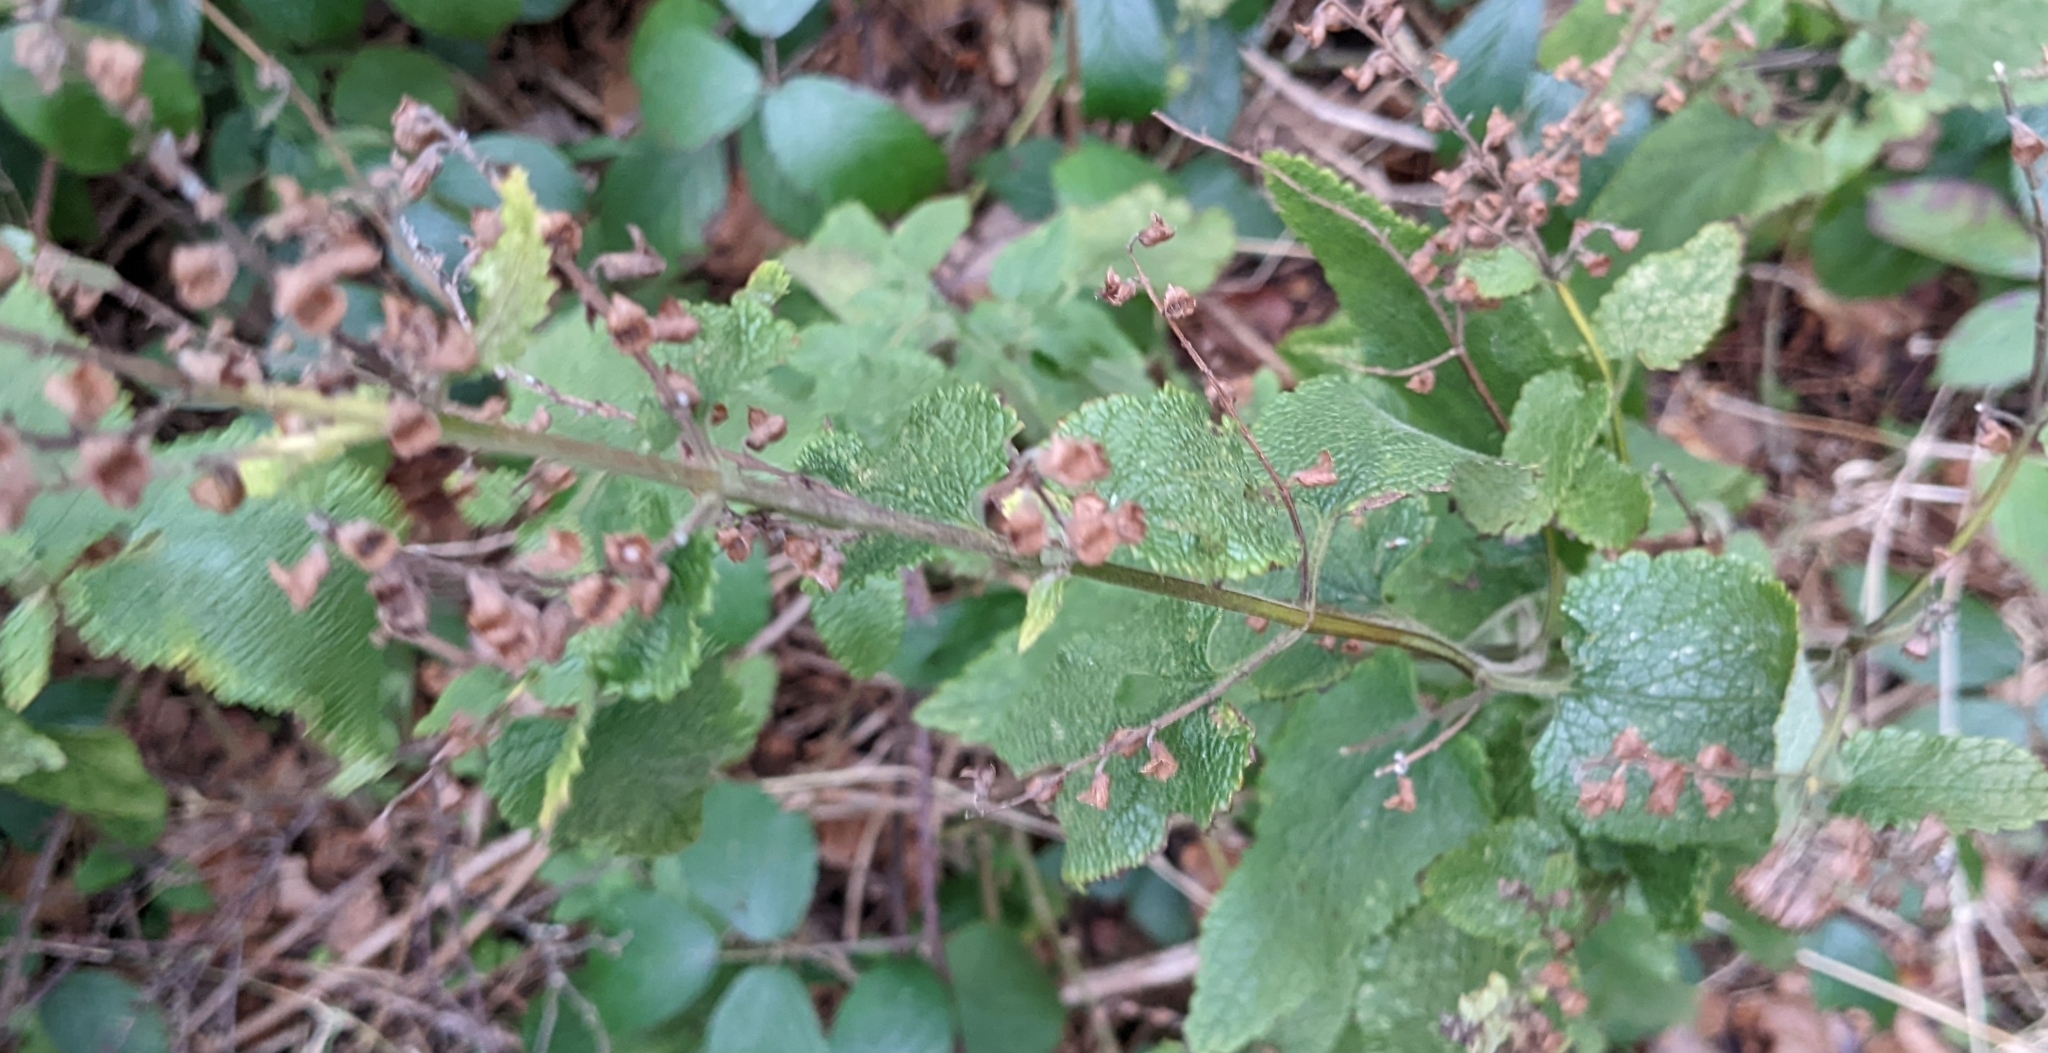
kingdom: Plantae
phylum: Tracheophyta
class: Magnoliopsida
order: Lamiales
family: Lamiaceae
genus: Teucrium
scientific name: Teucrium scorodonia
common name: Woodland germander
